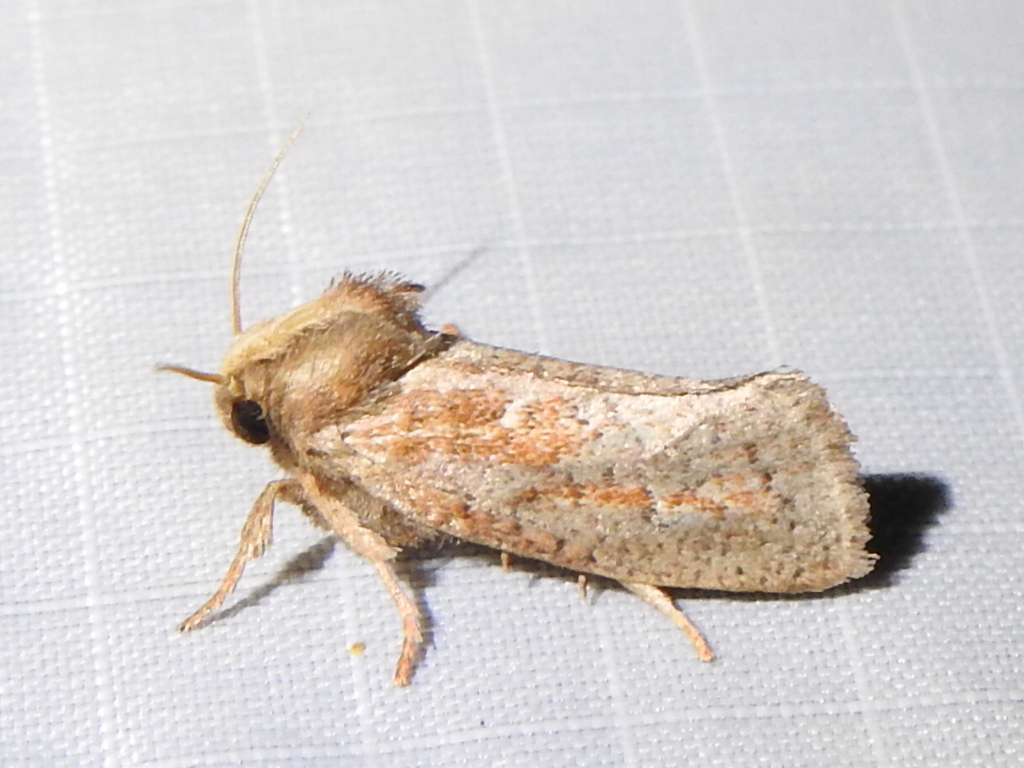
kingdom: Animalia
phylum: Arthropoda
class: Insecta
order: Lepidoptera
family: Tineidae
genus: Acrolophus
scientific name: Acrolophus plumifrontella
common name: Eastern grass tubeworm moth
